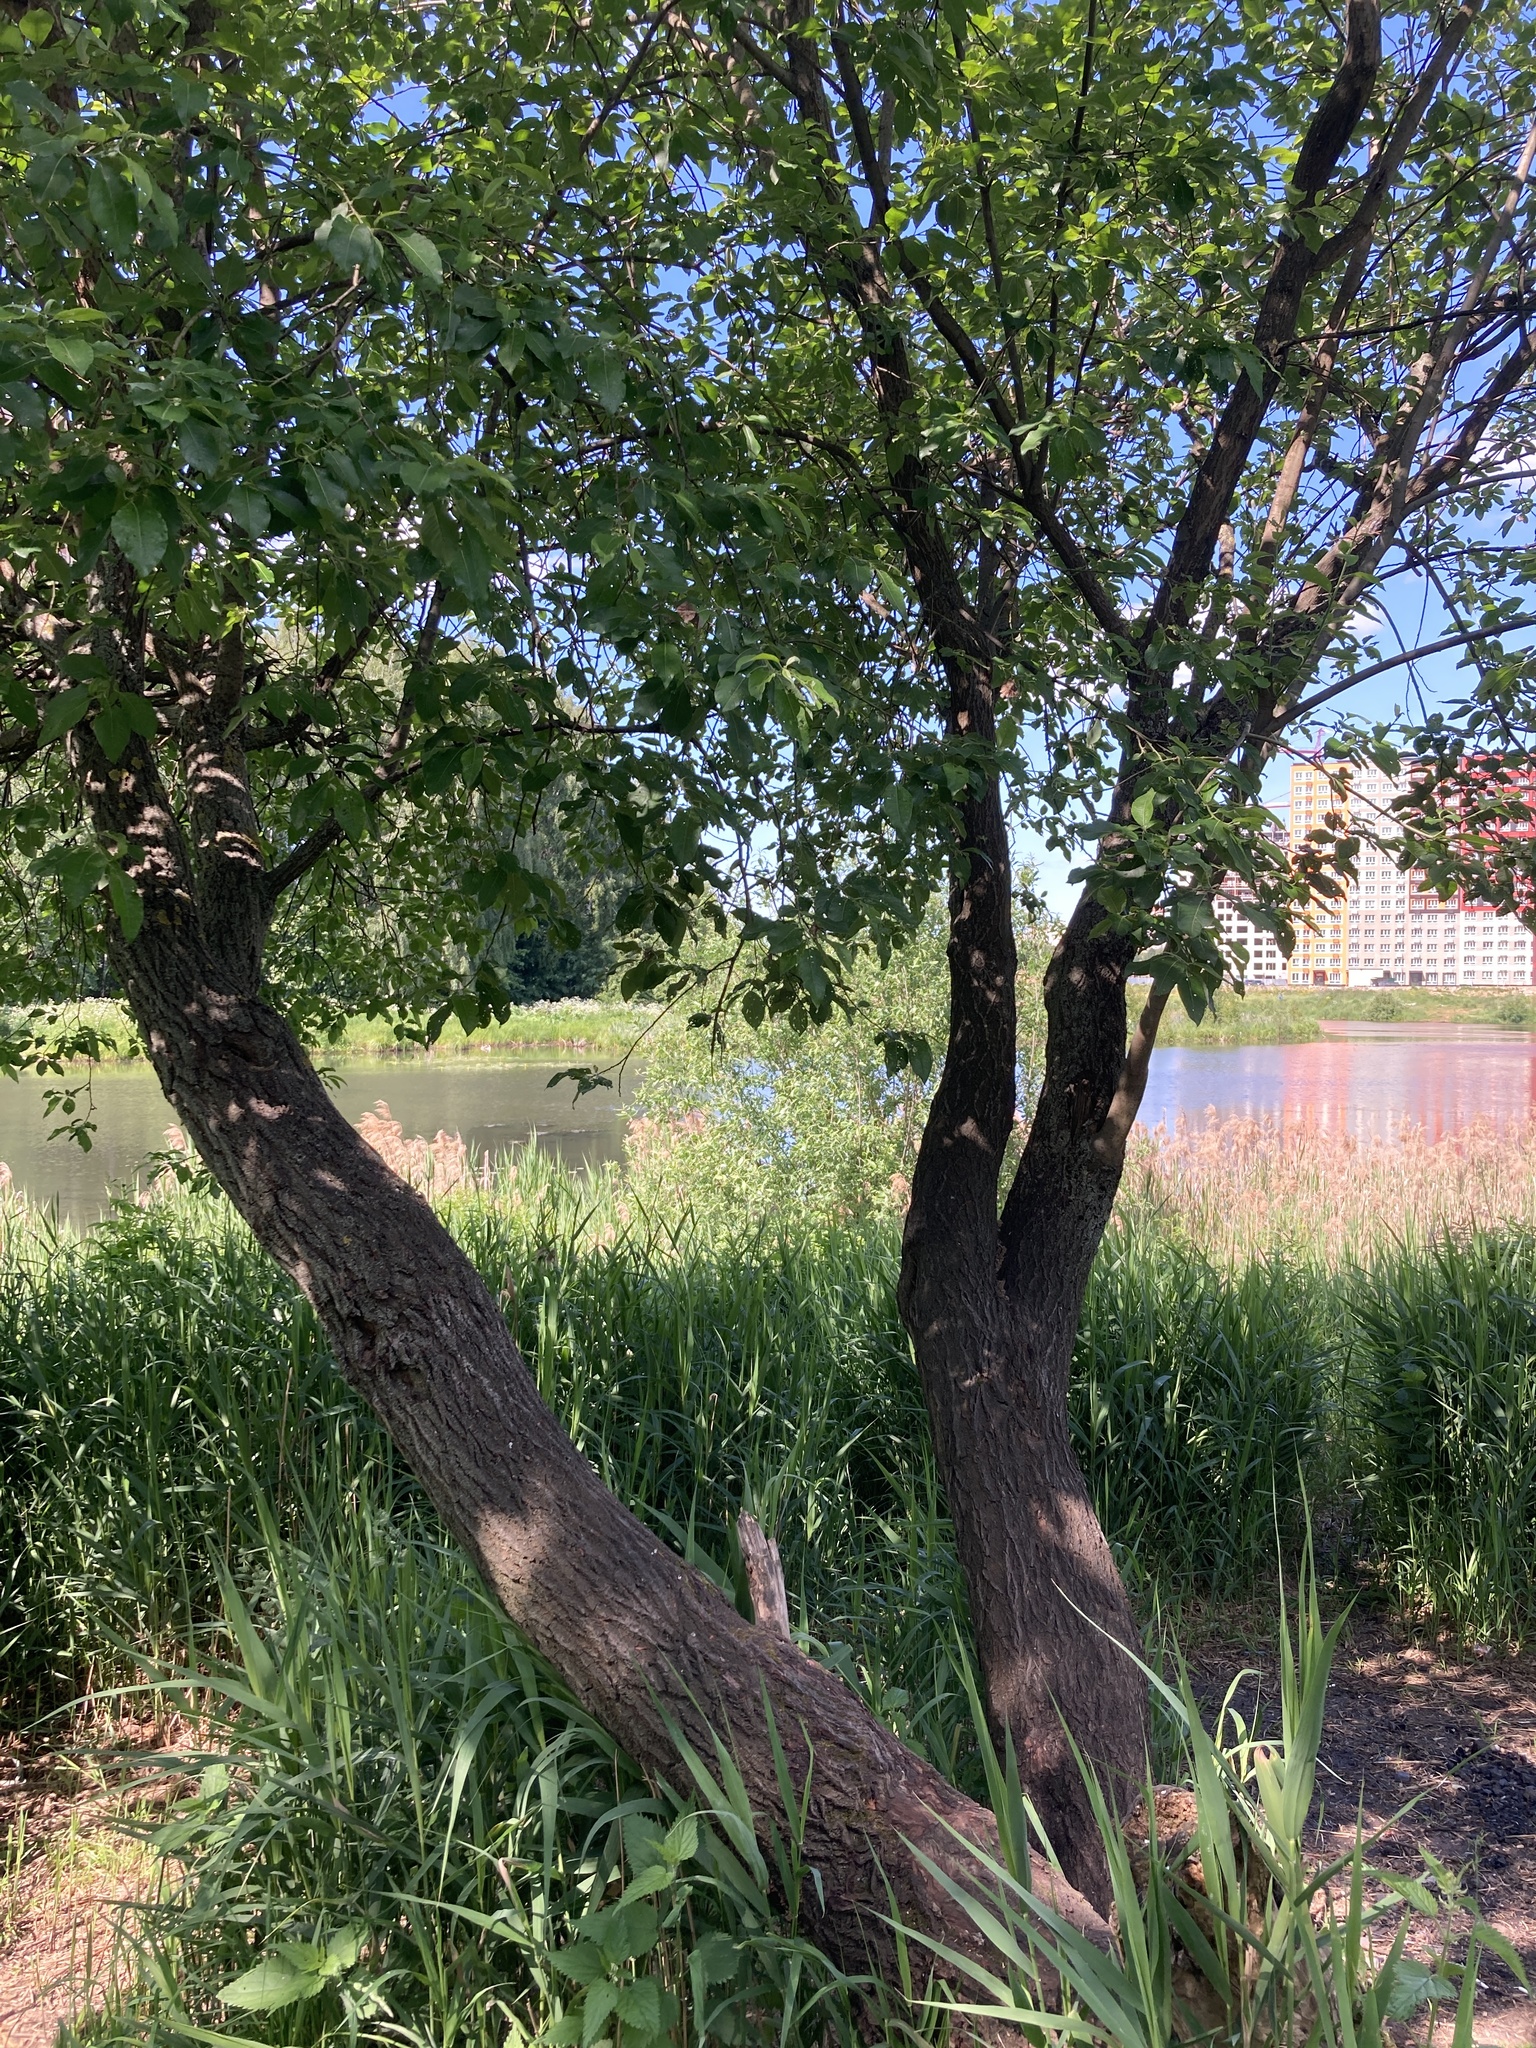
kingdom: Plantae
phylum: Tracheophyta
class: Magnoliopsida
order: Malpighiales
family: Salicaceae
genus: Salix
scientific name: Salix caprea
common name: Goat willow
